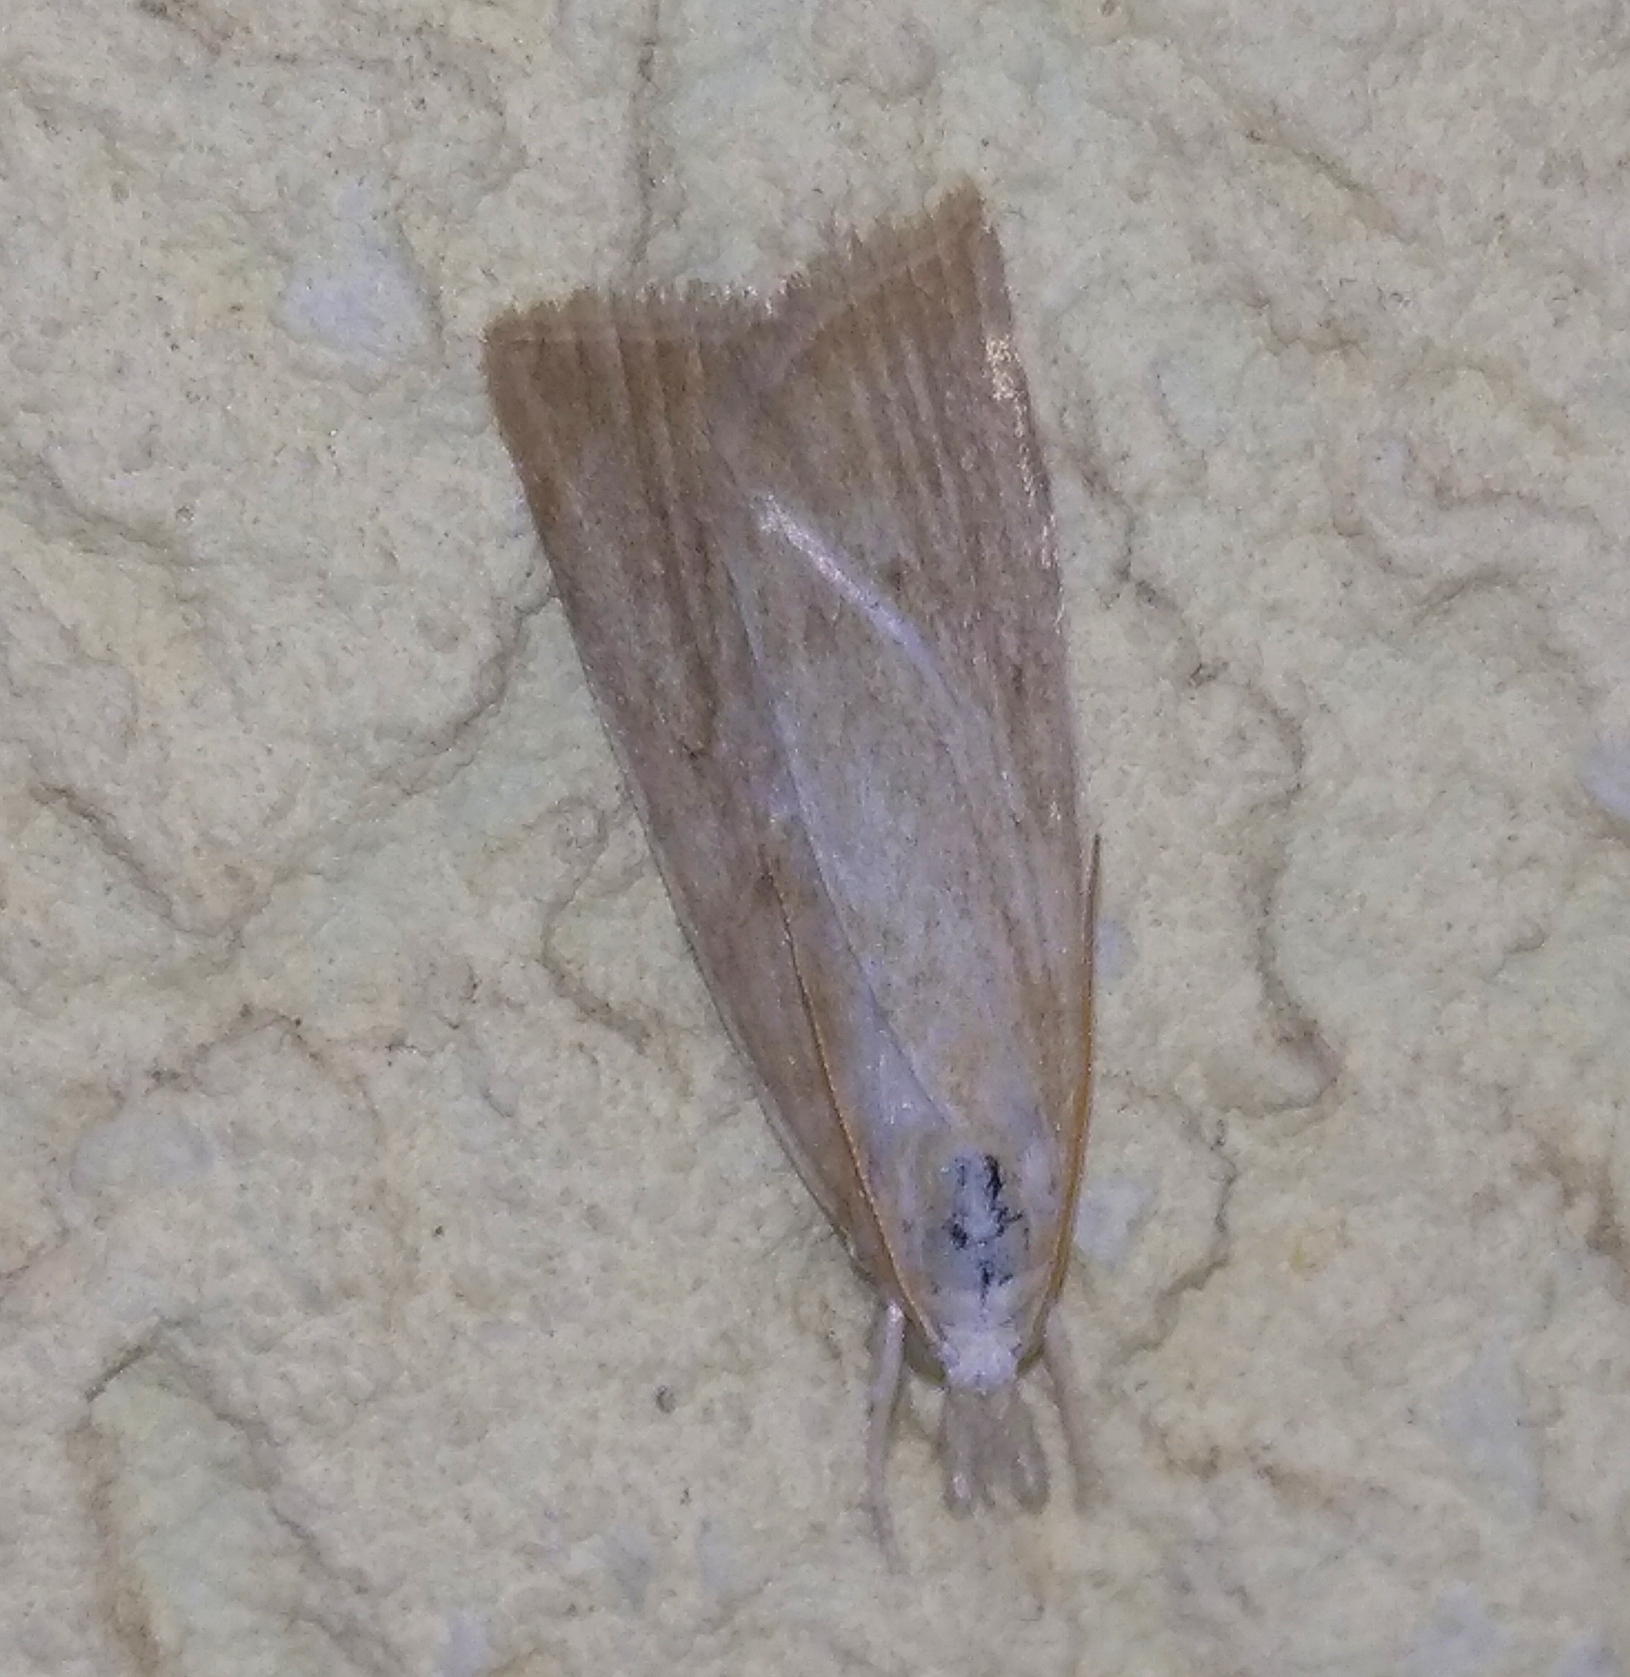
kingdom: Animalia
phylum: Arthropoda
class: Insecta
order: Lepidoptera
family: Crambidae
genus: Calamotropha
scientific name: Calamotropha paludella
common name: Bulrush veneer
